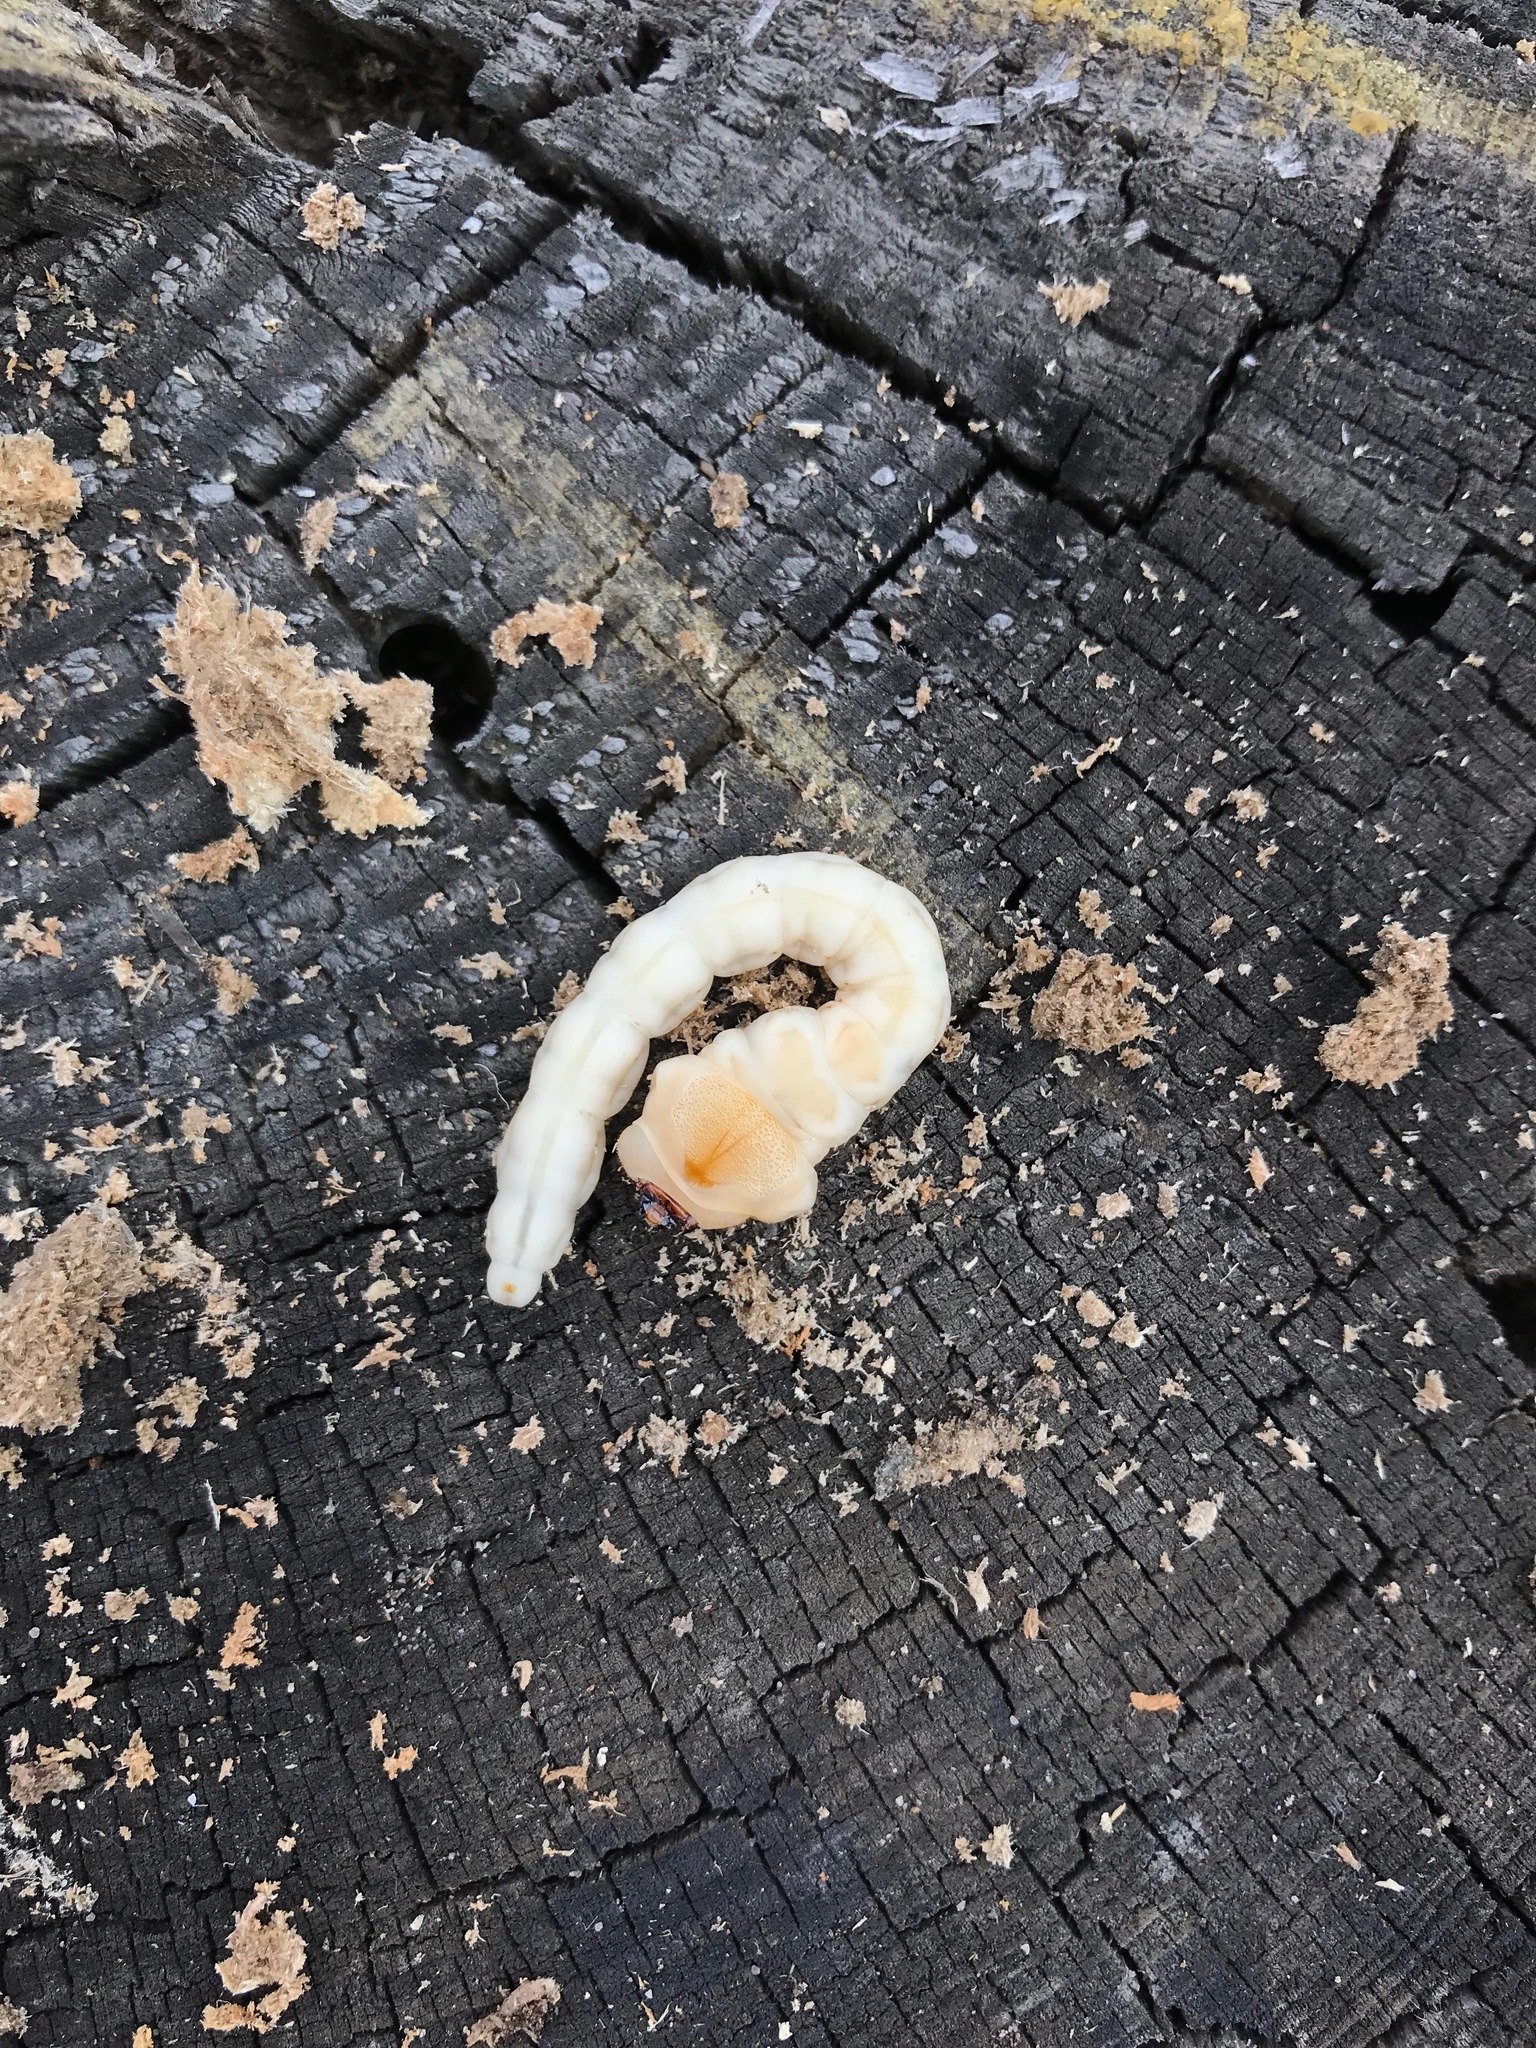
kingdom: Animalia
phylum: Arthropoda
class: Insecta
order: Coleoptera
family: Buprestidae
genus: Chalcophora
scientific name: Chalcophora mariana
